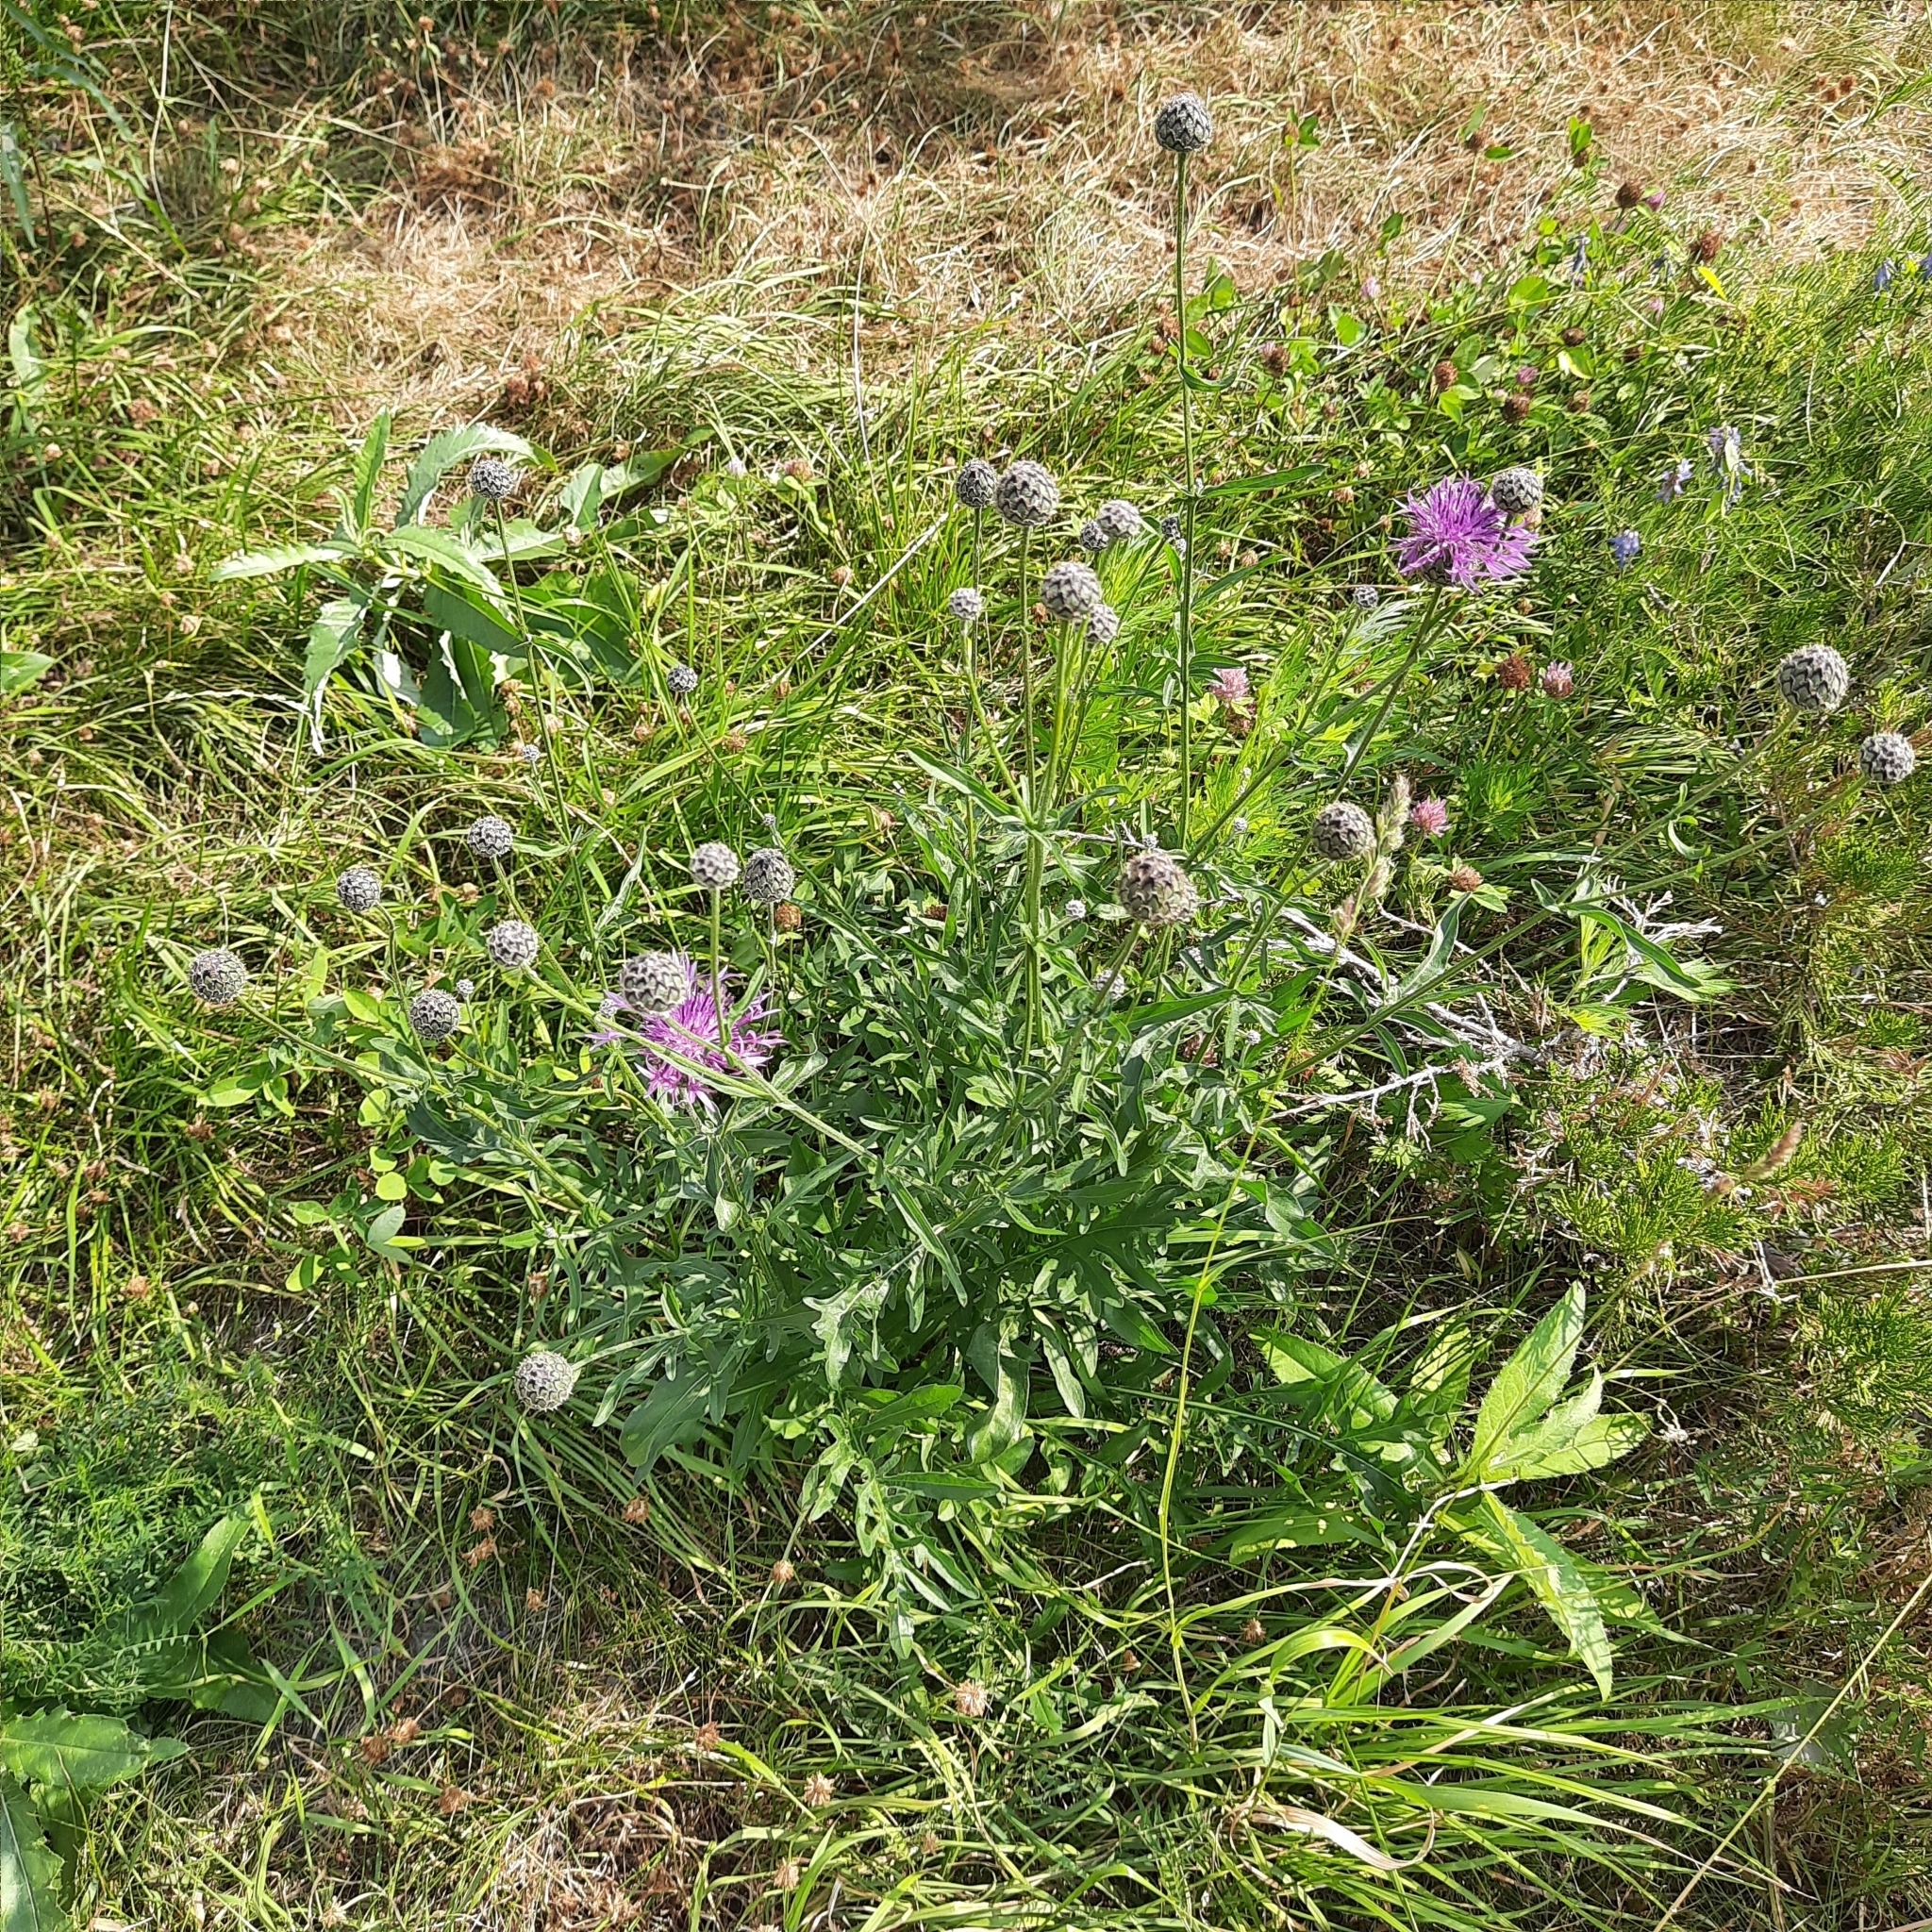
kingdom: Plantae
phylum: Tracheophyta
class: Magnoliopsida
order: Asterales
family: Asteraceae
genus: Centaurea
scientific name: Centaurea scabiosa
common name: Greater knapweed
